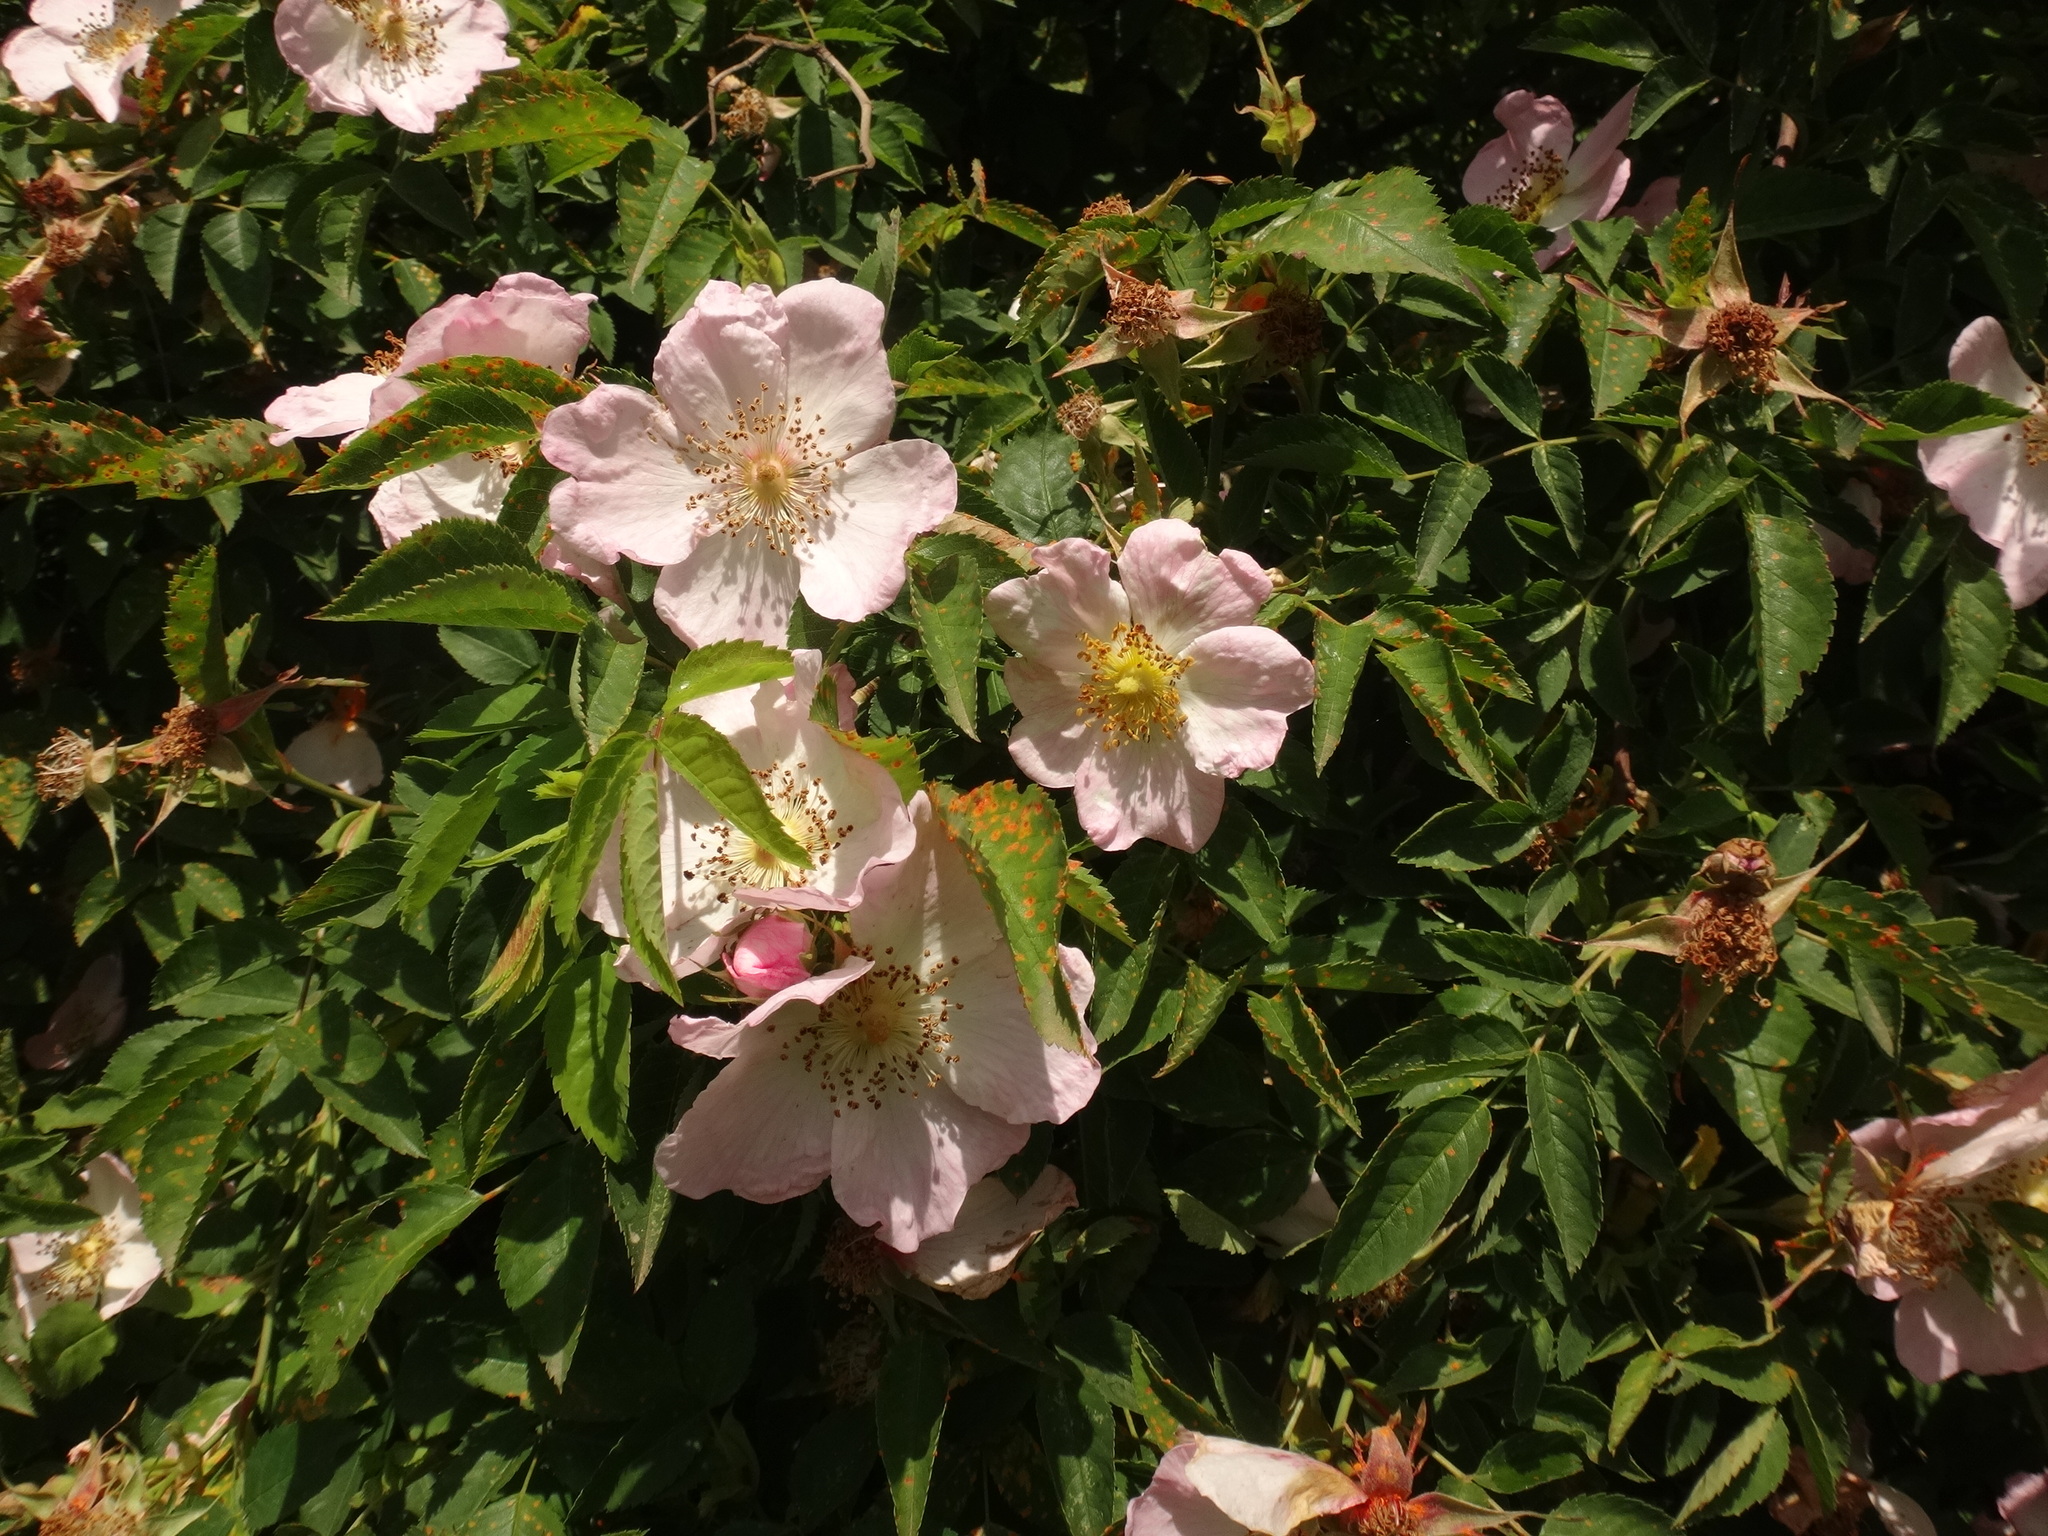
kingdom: Plantae
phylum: Tracheophyta
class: Magnoliopsida
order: Rosales
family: Rosaceae
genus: Rosa
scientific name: Rosa canina
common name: Dog rose
